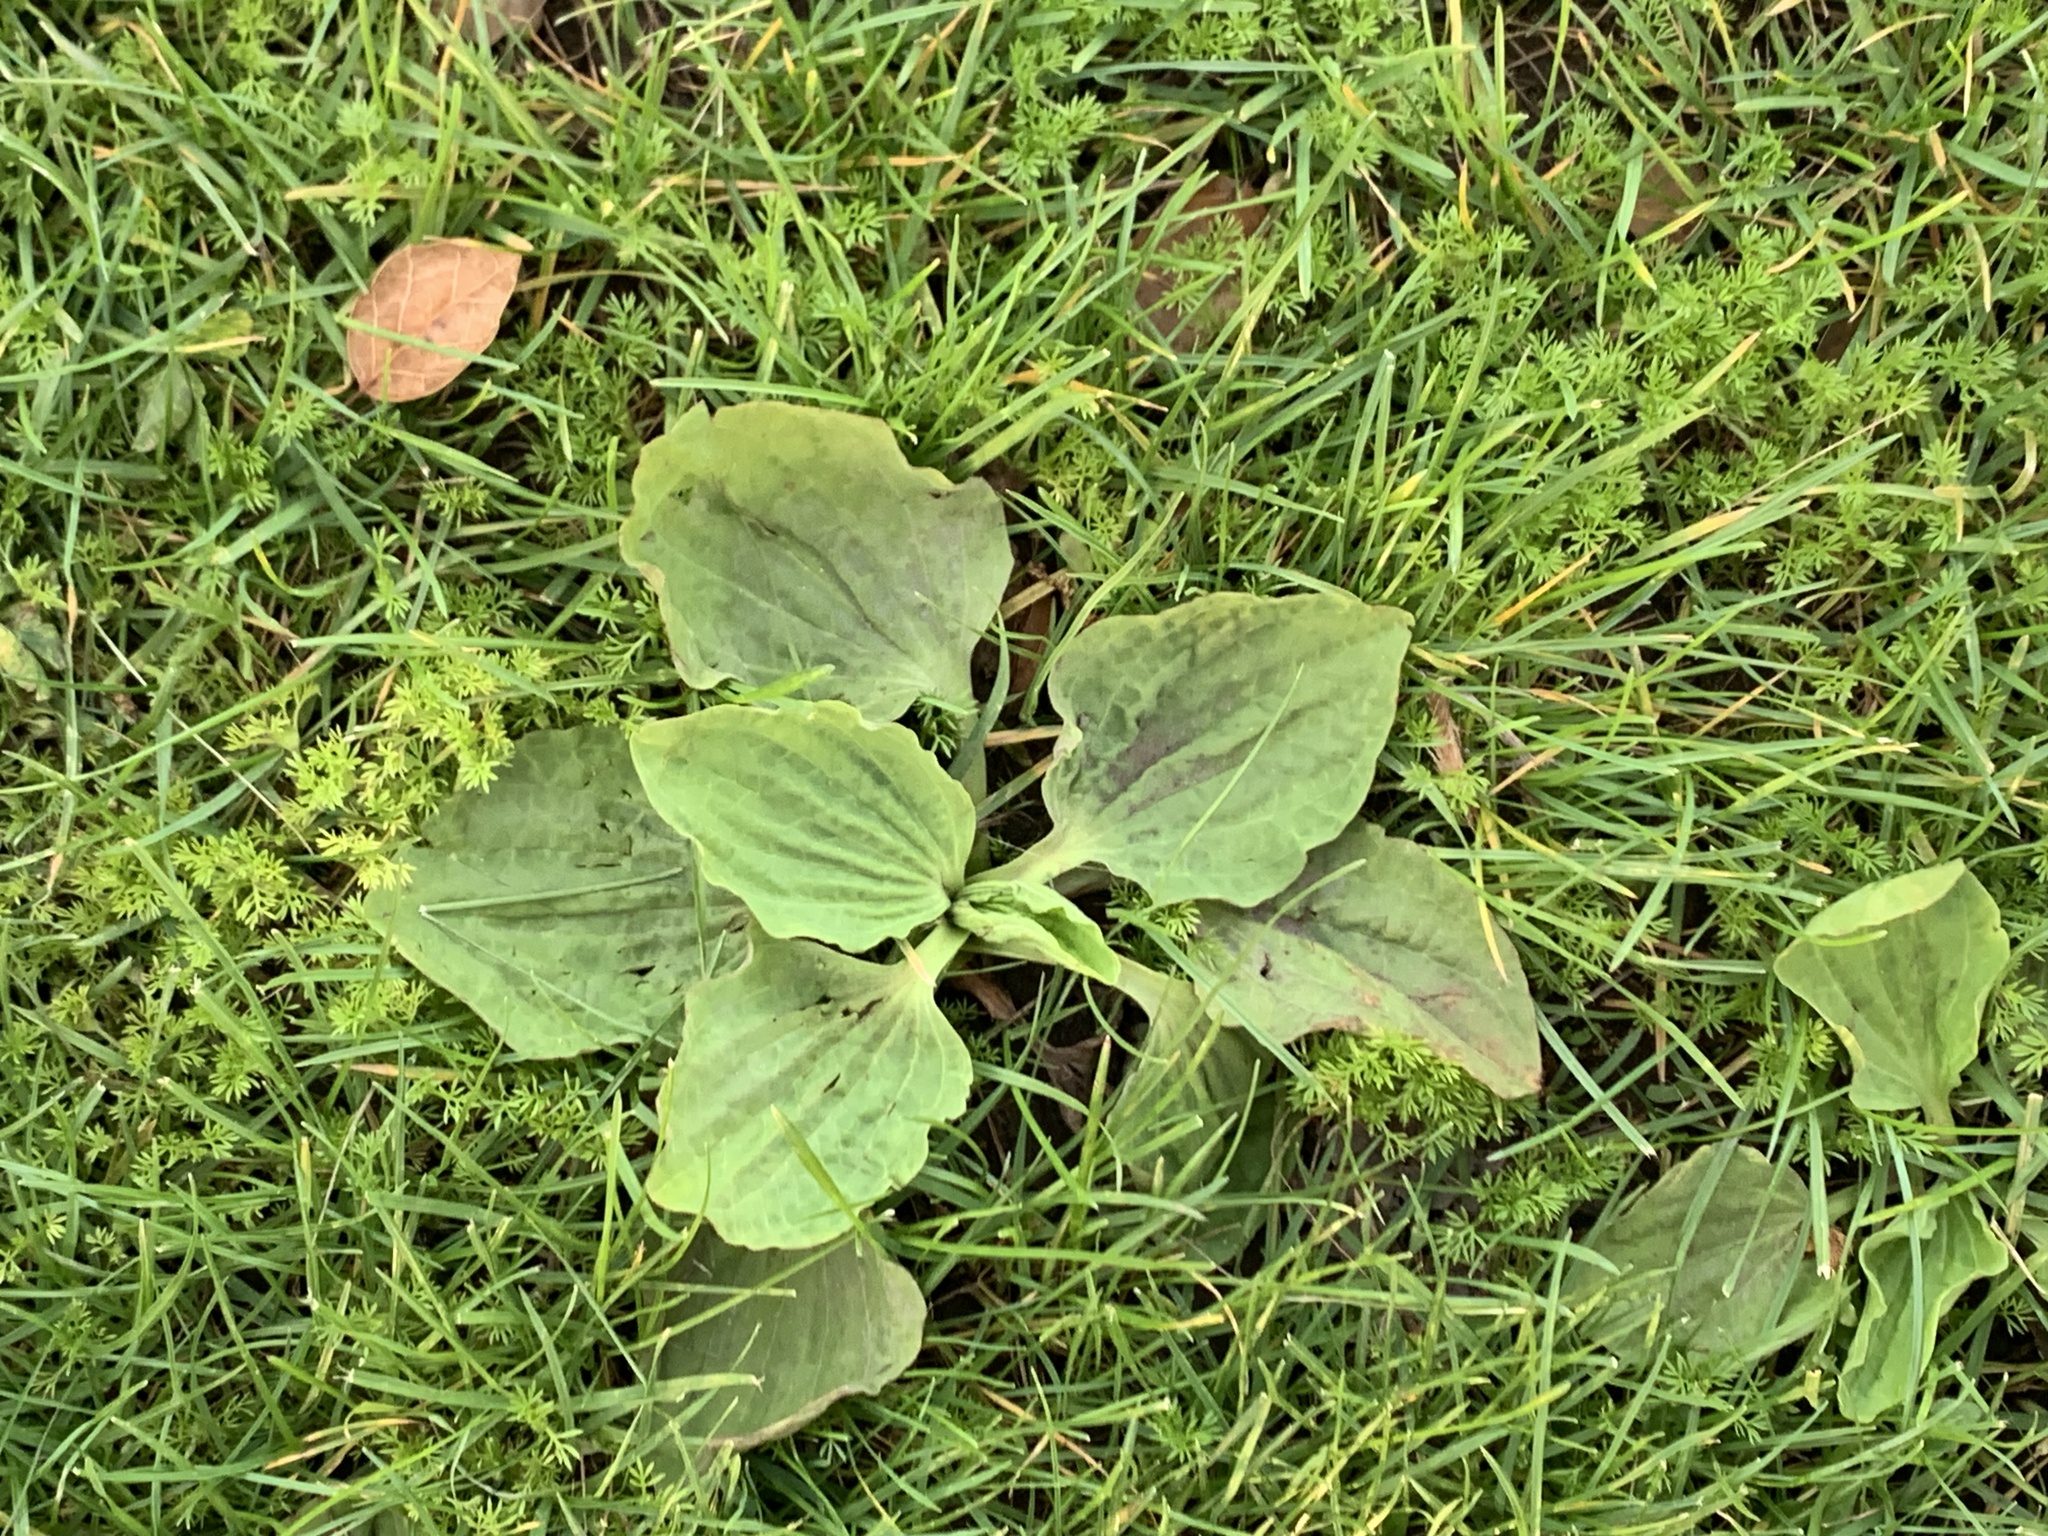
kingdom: Plantae
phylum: Tracheophyta
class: Magnoliopsida
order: Lamiales
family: Plantaginaceae
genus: Plantago
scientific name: Plantago rugelii
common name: American plantain
